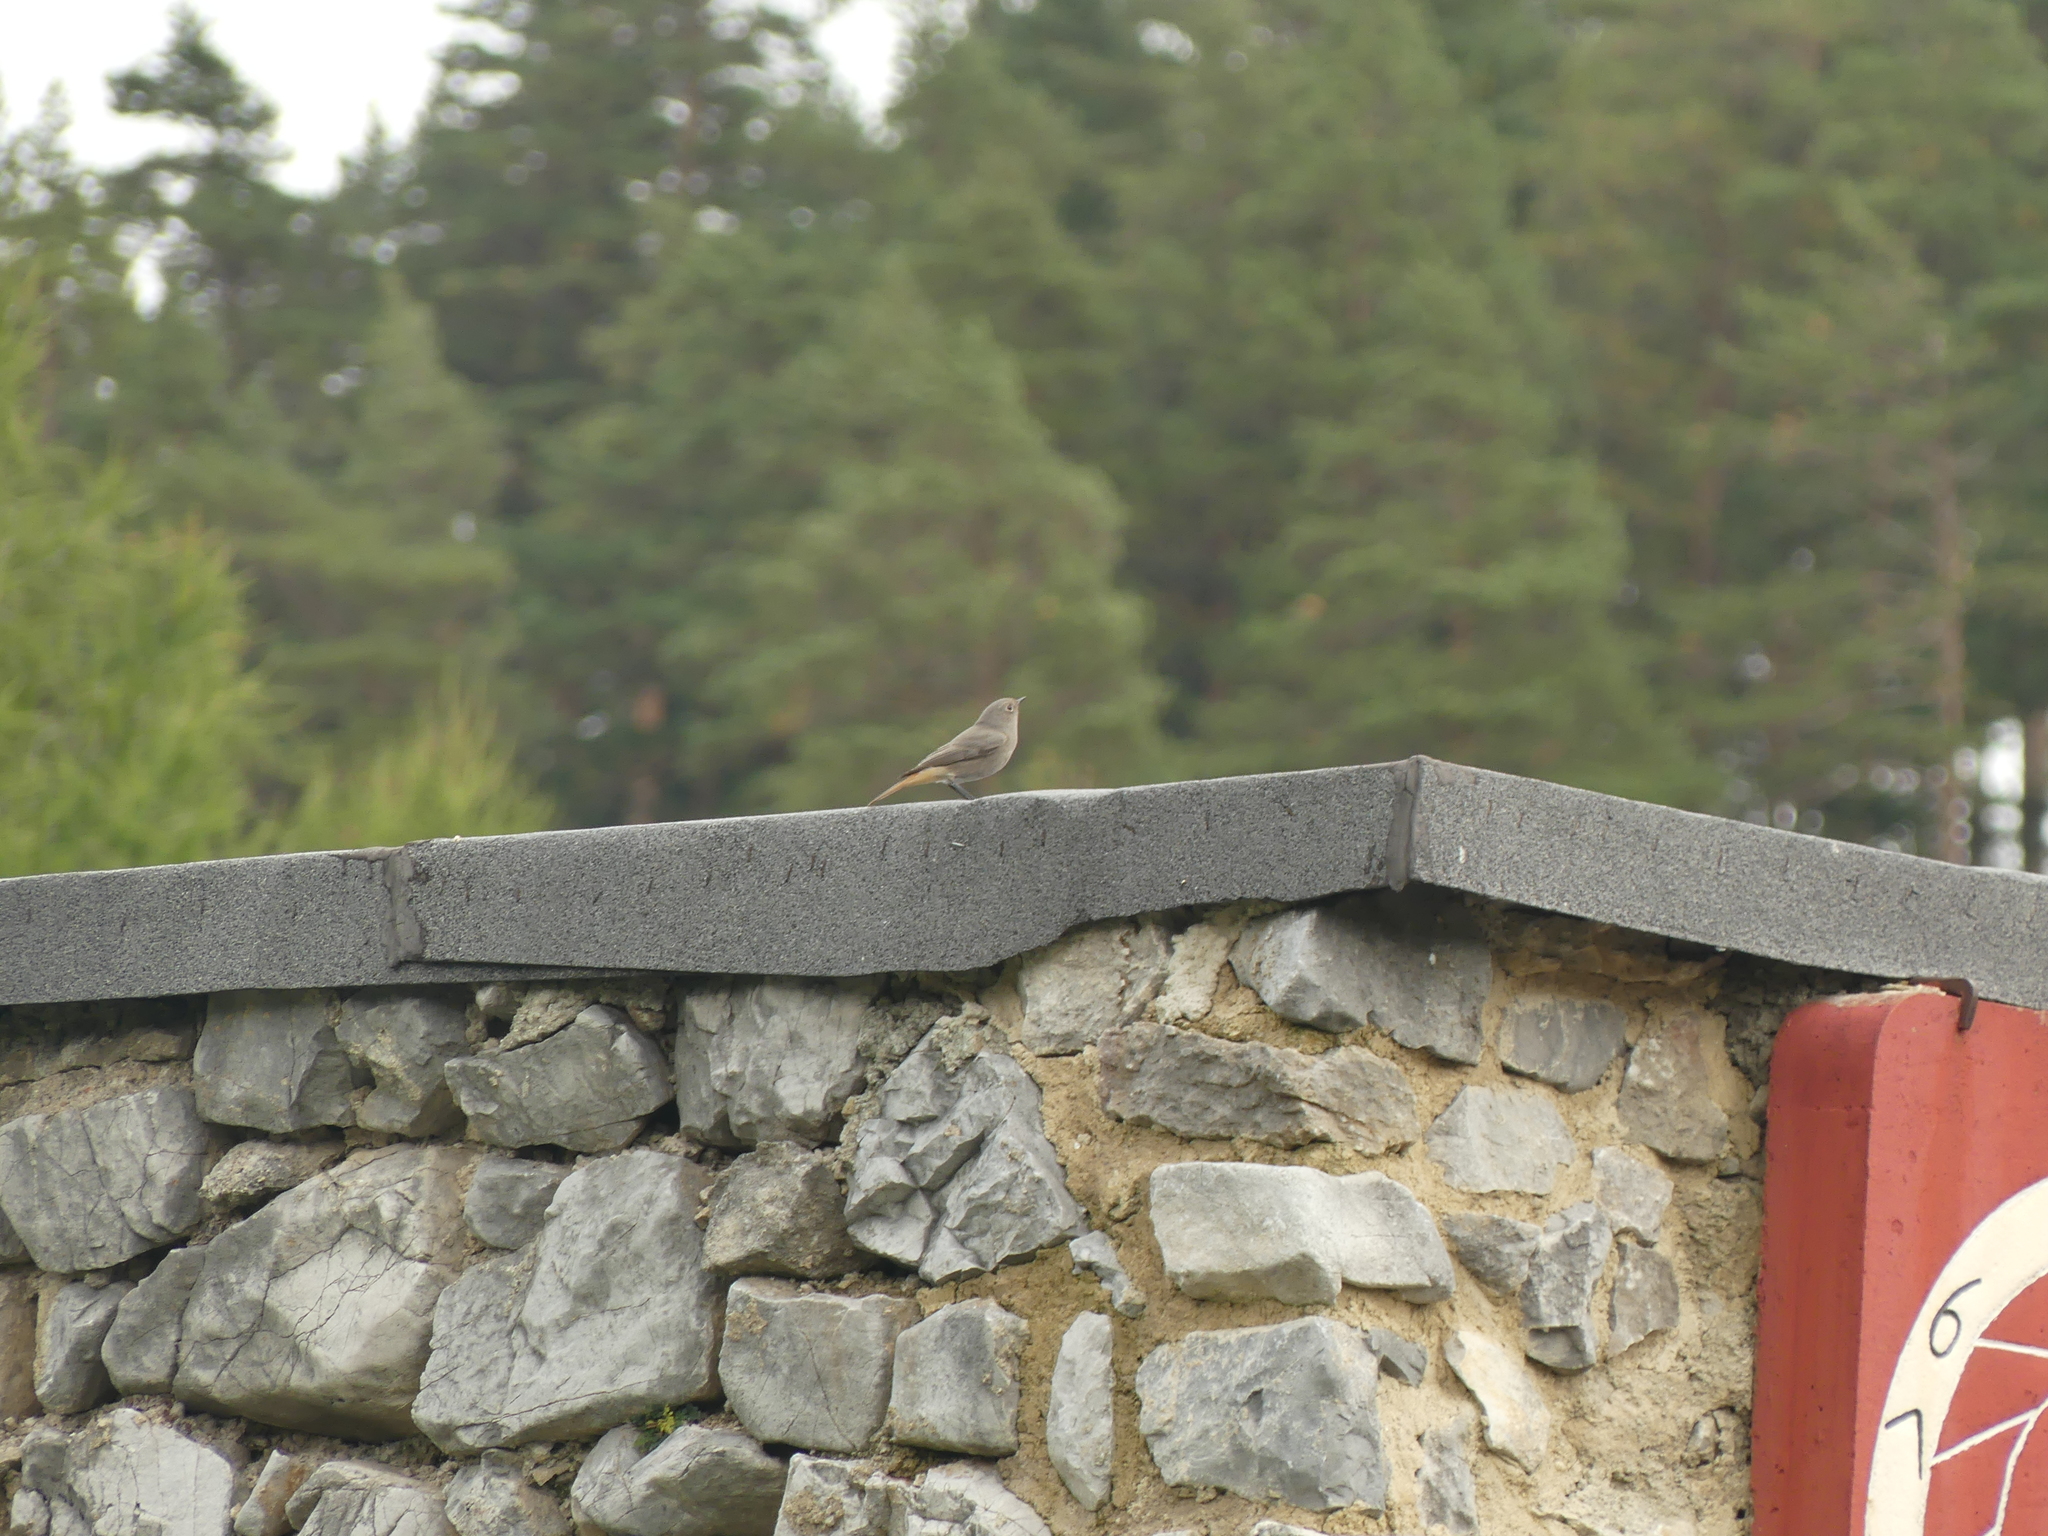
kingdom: Animalia
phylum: Chordata
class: Aves
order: Passeriformes
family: Muscicapidae
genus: Phoenicurus
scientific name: Phoenicurus ochruros
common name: Black redstart
